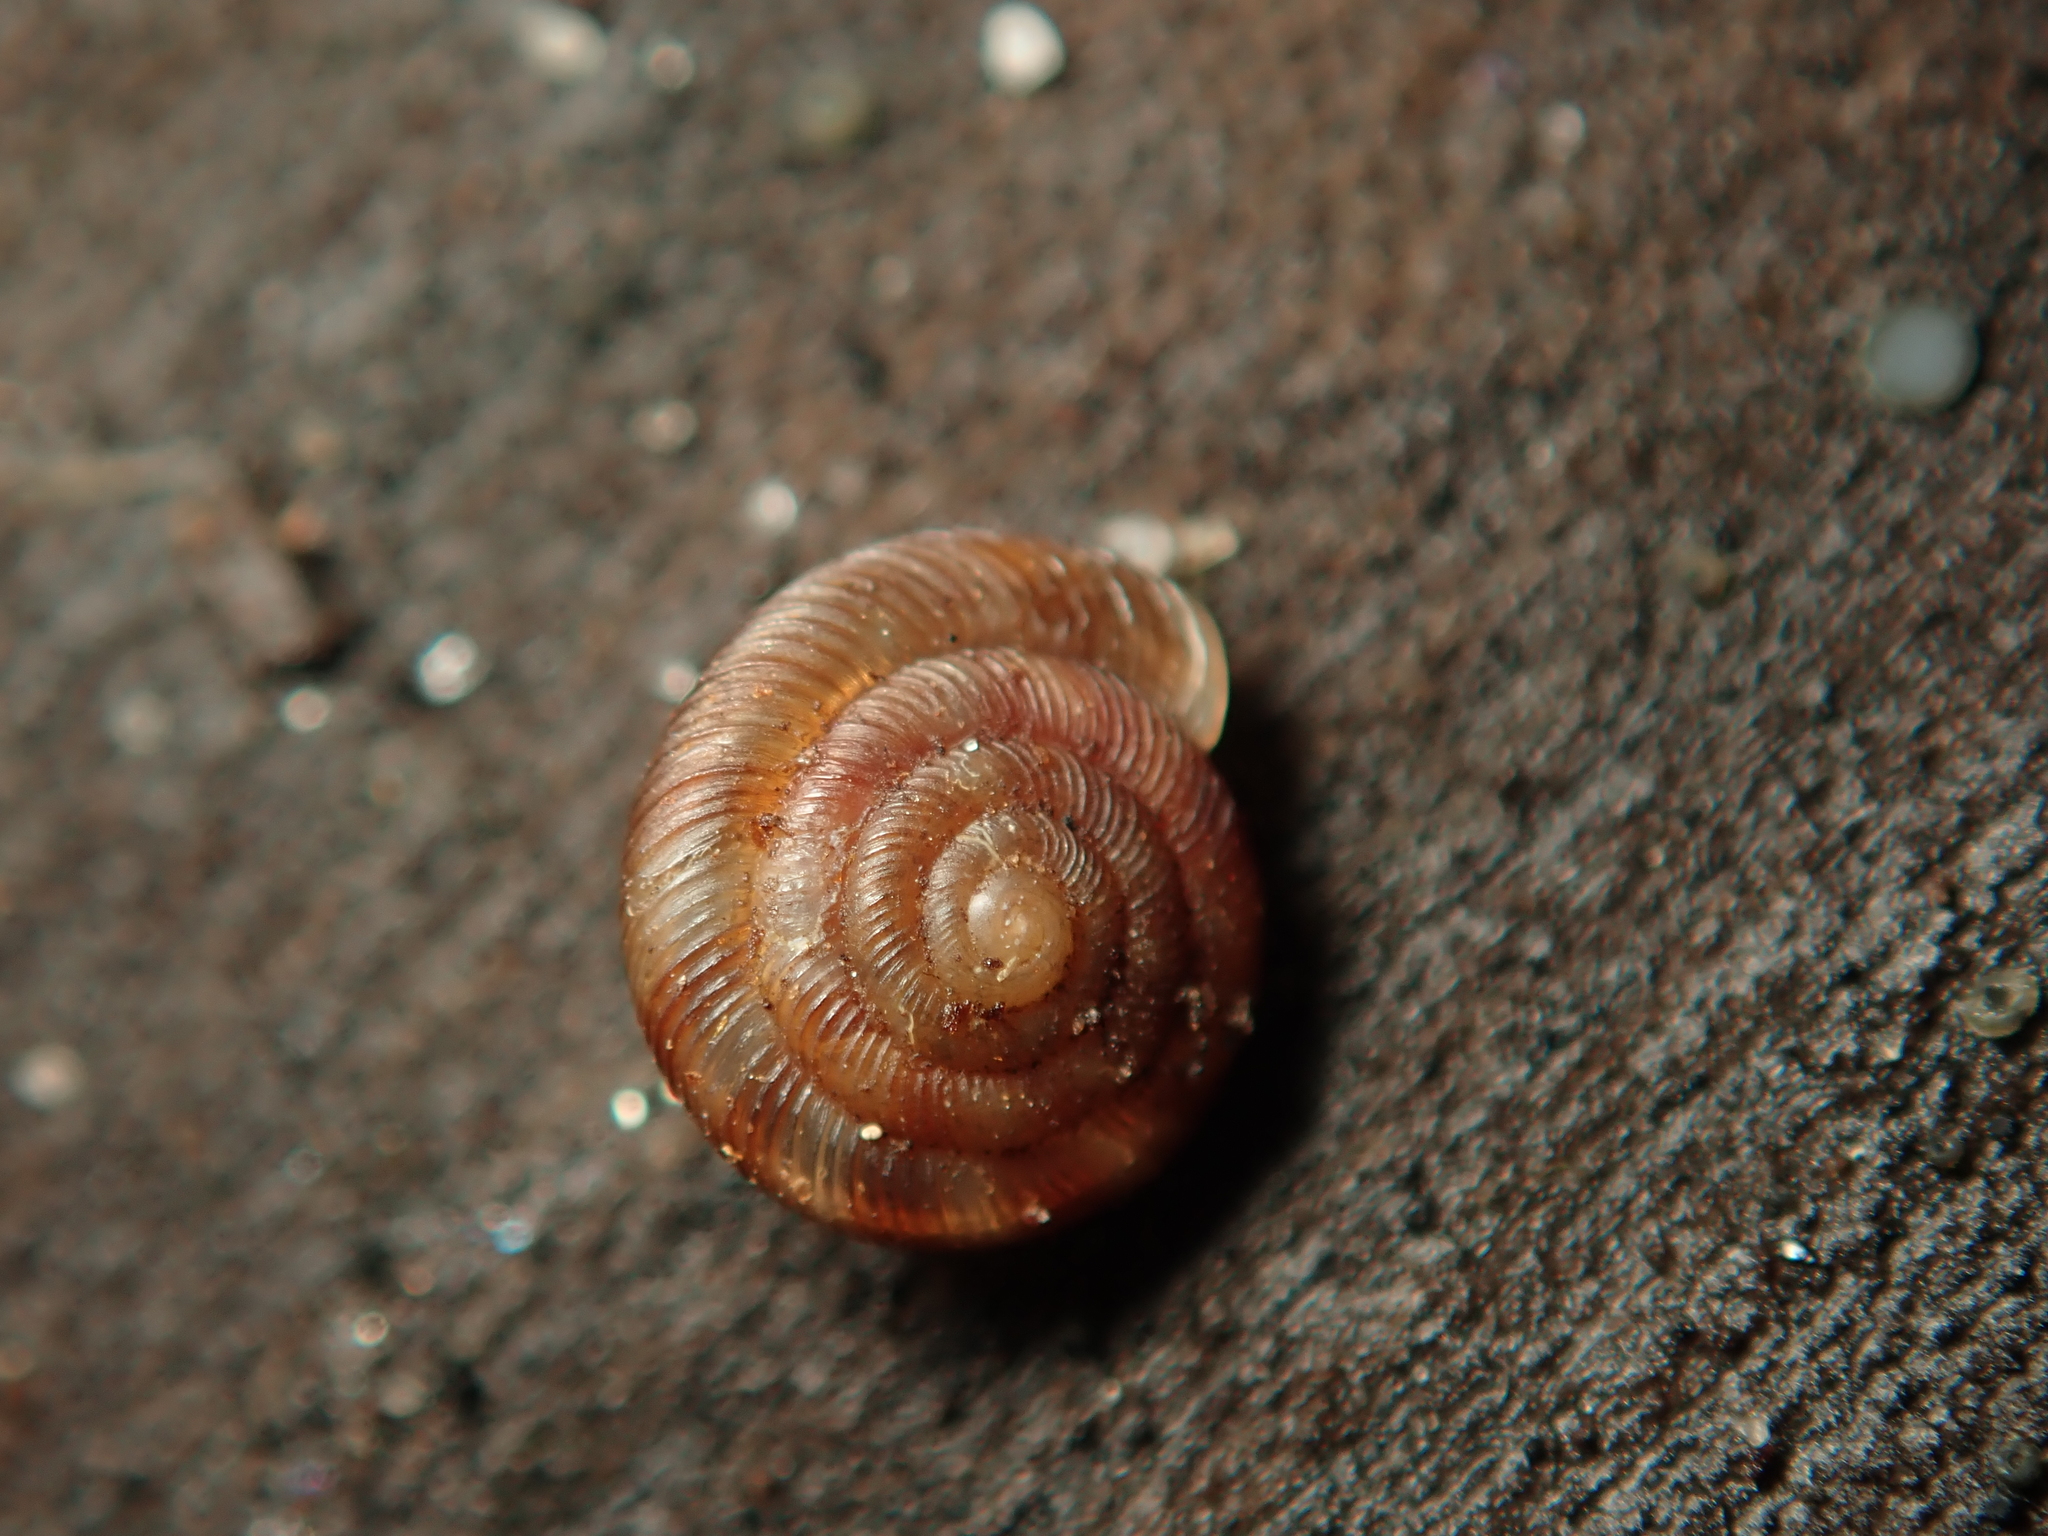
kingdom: Animalia
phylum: Mollusca
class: Gastropoda
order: Stylommatophora
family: Discidae
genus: Discus
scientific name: Discus rotundatus
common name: Rounded snail
